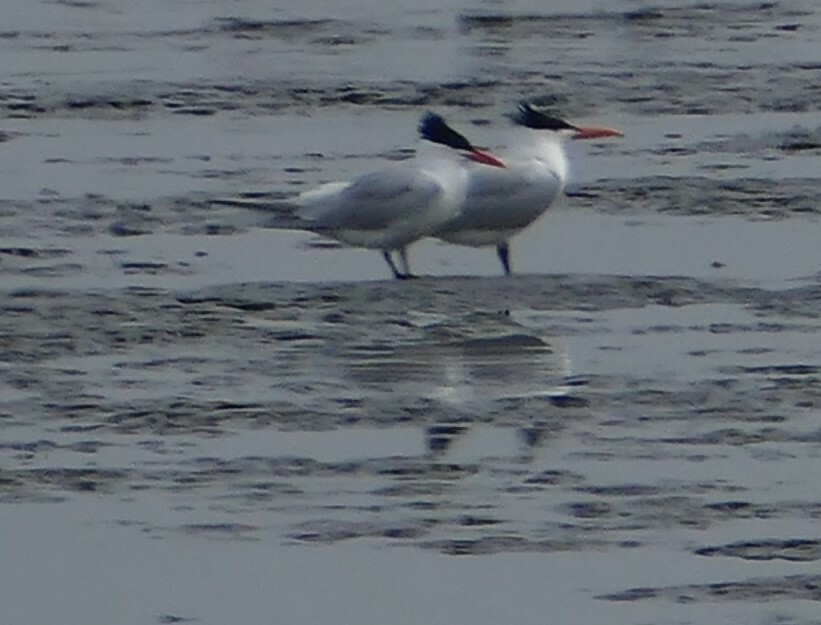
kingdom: Animalia
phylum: Chordata
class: Aves
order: Charadriiformes
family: Laridae
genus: Thalasseus
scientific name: Thalasseus maximus
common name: Royal tern
